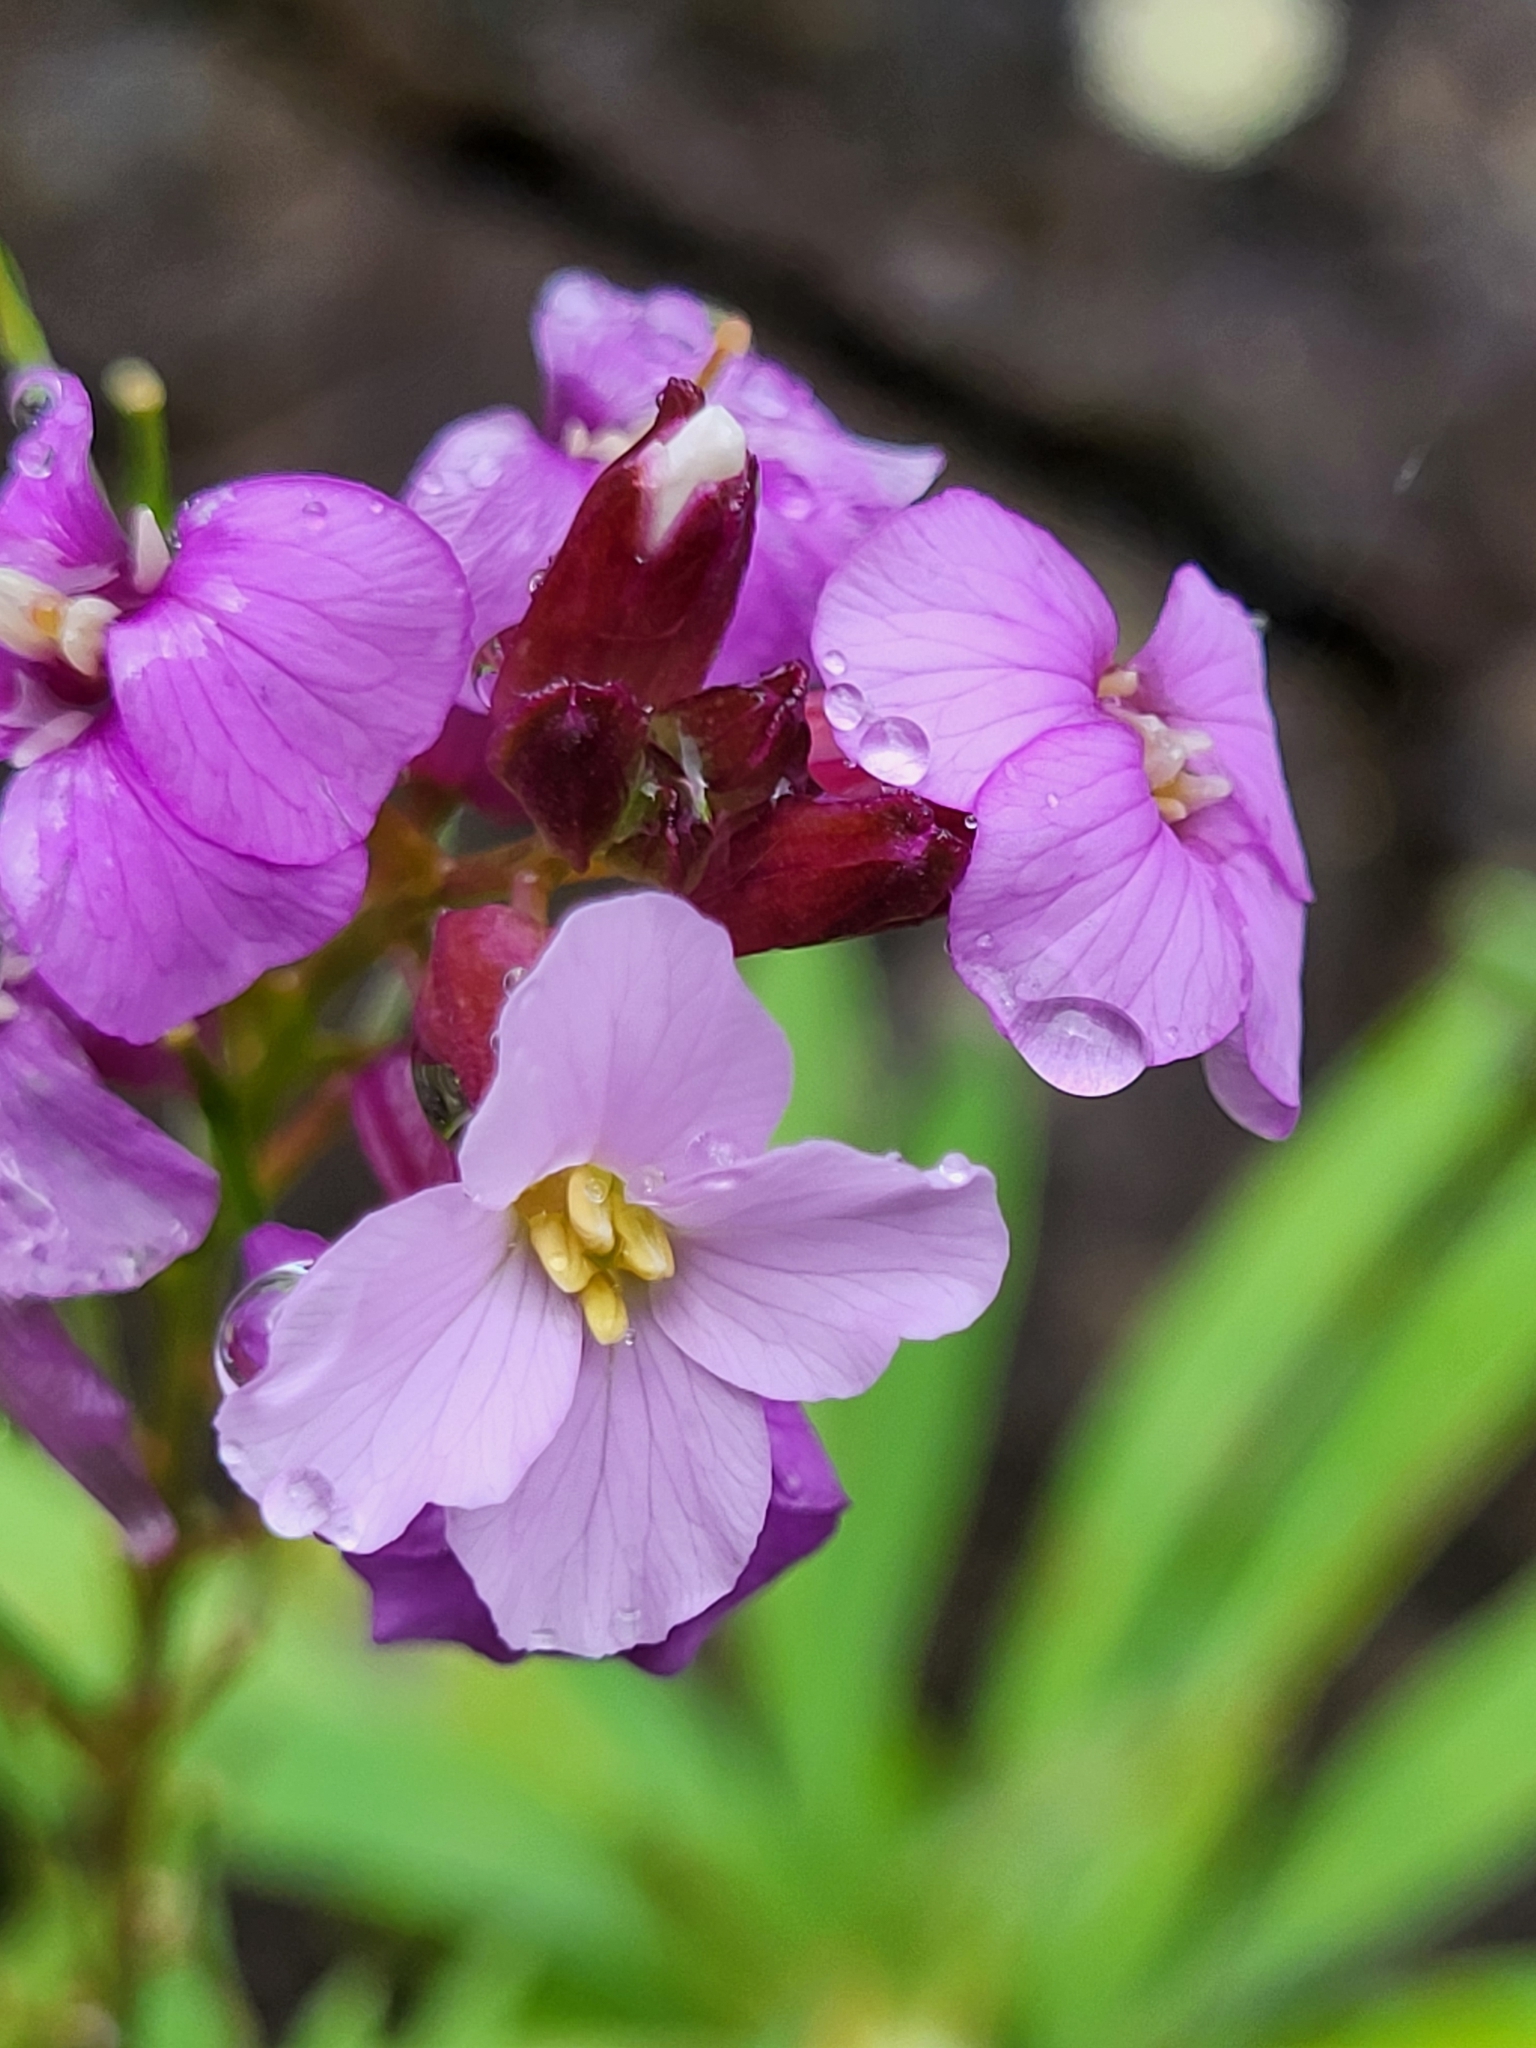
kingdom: Plantae
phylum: Tracheophyta
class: Magnoliopsida
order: Brassicales
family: Brassicaceae
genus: Erysimum
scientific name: Erysimum bicolor
